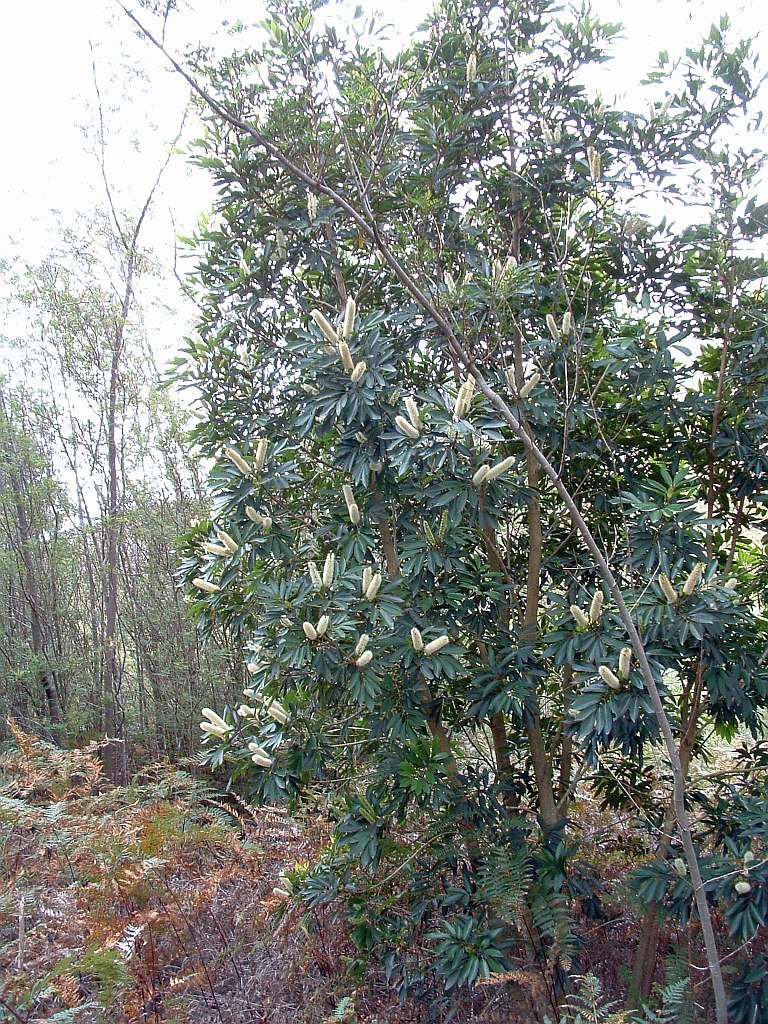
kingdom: Plantae
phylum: Tracheophyta
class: Magnoliopsida
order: Oxalidales
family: Cunoniaceae
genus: Cunonia
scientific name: Cunonia capensis
